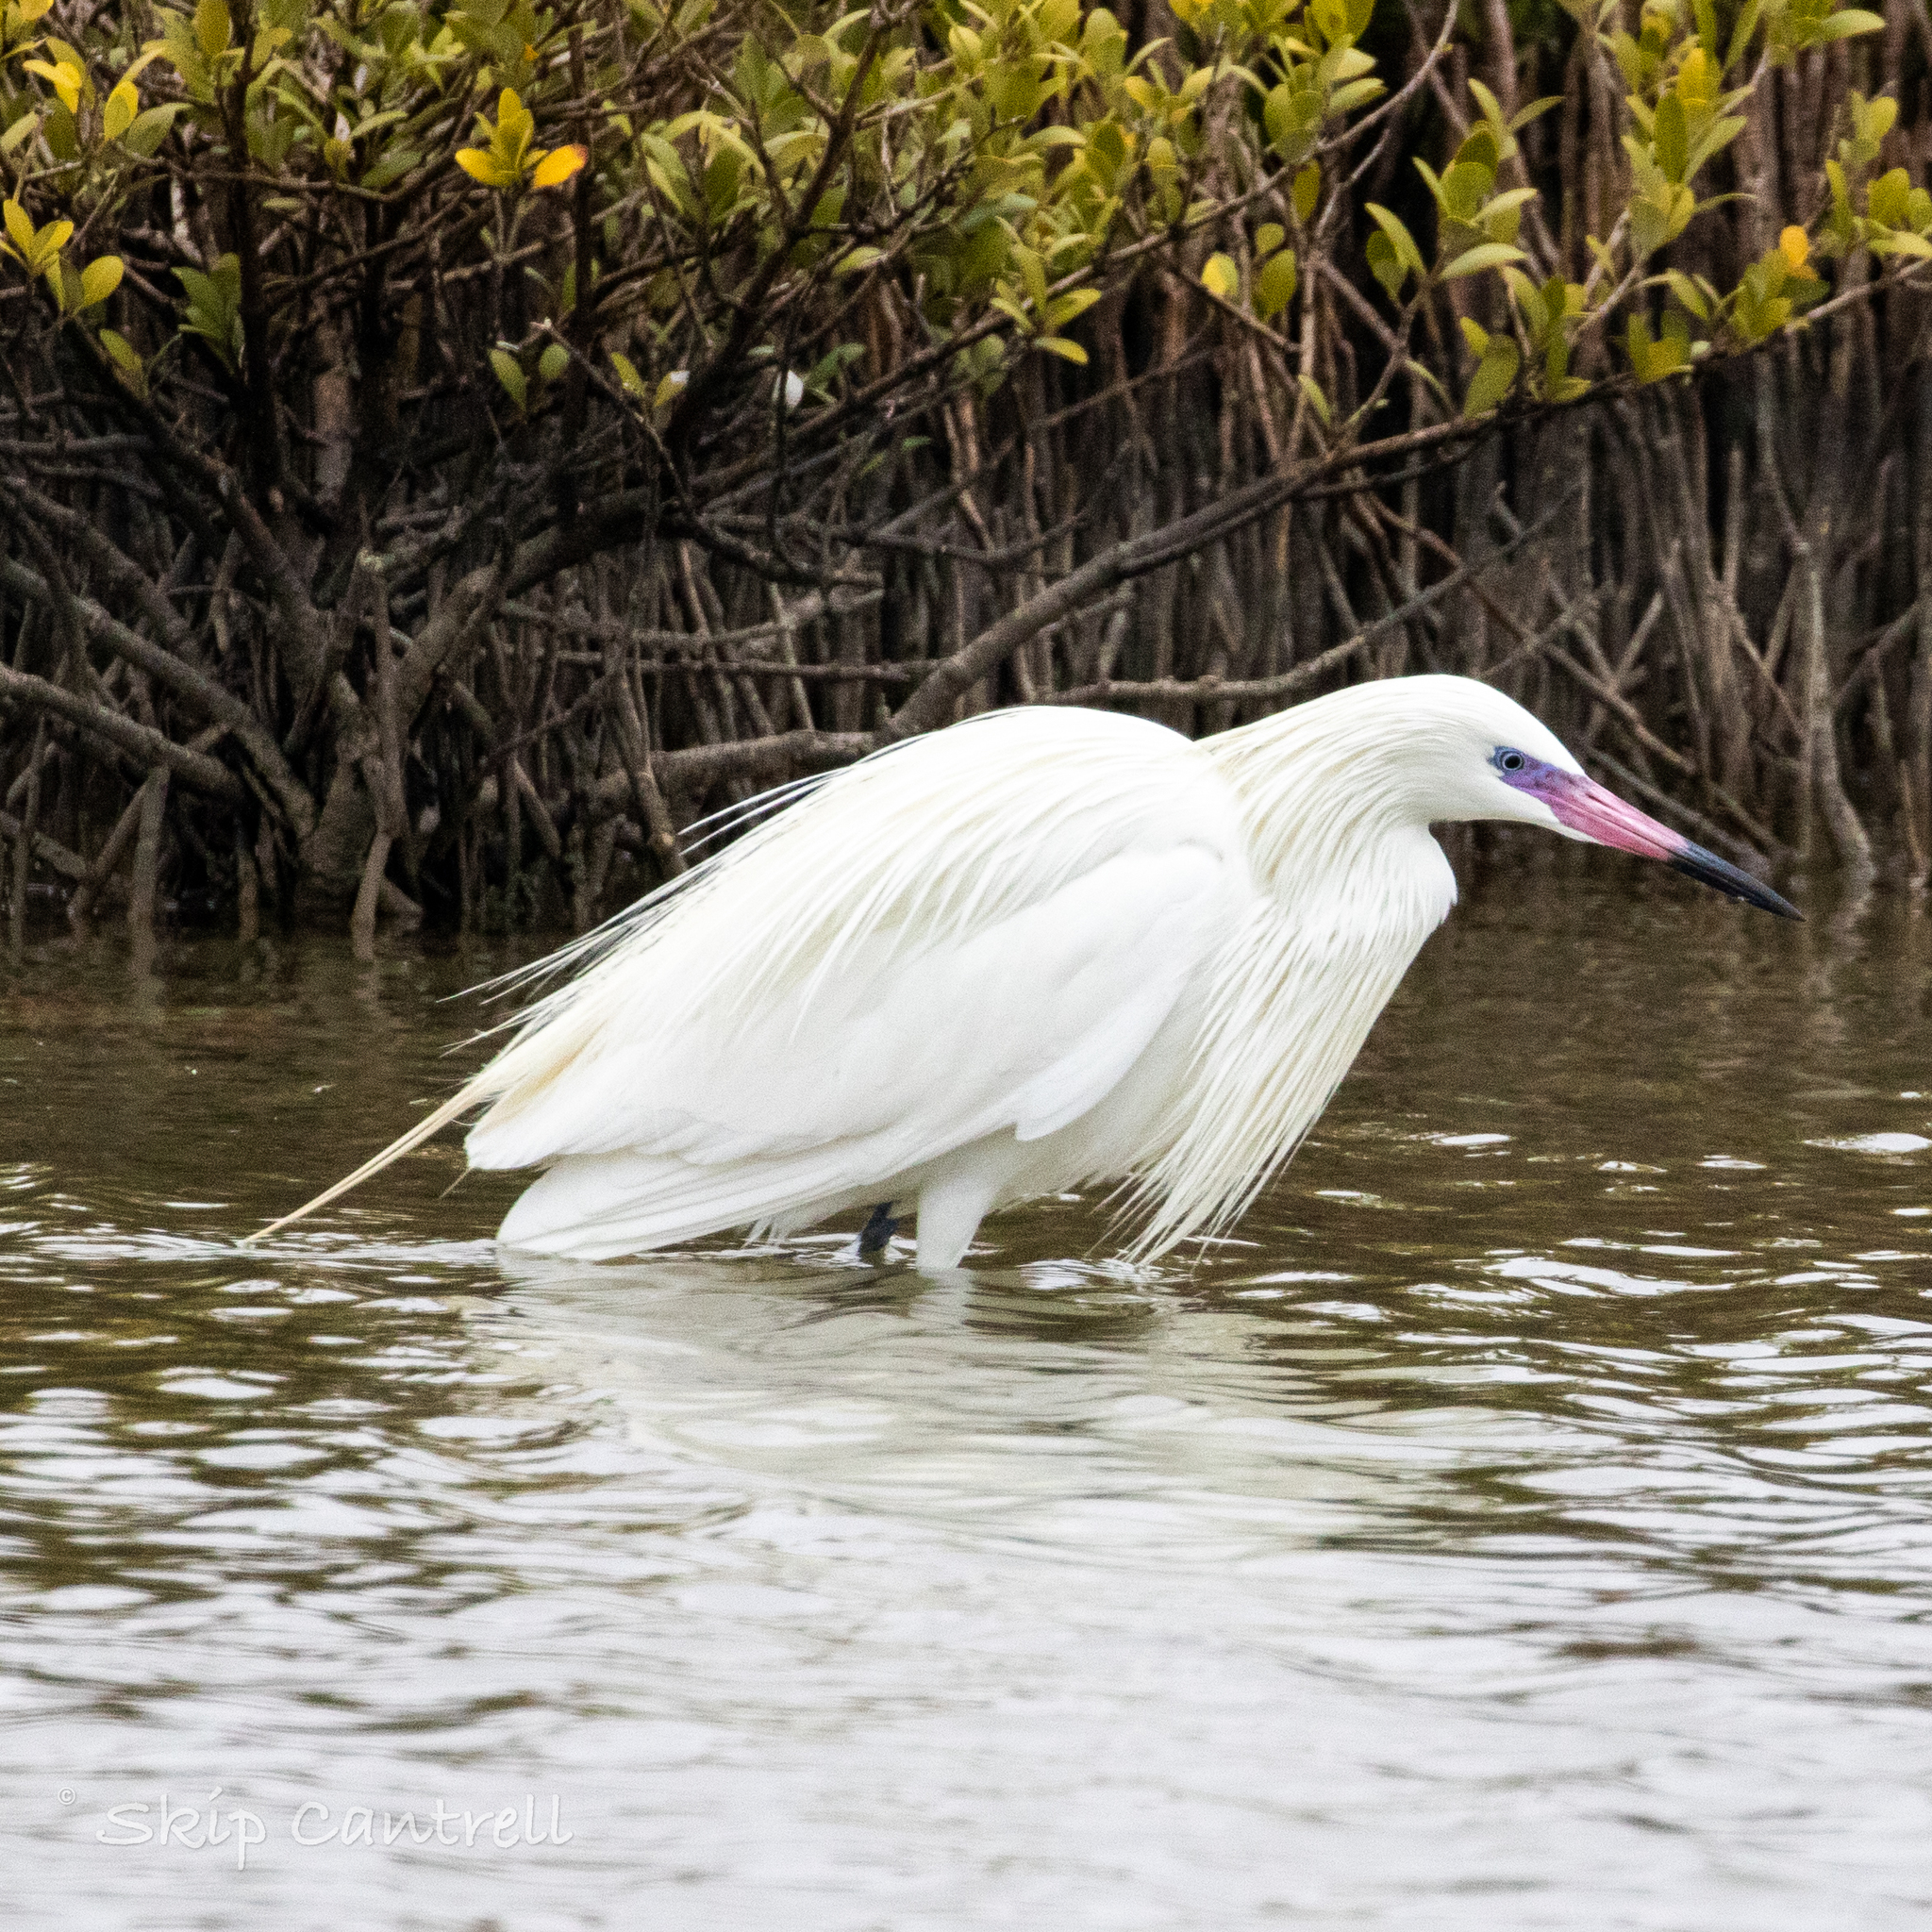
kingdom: Animalia
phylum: Chordata
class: Aves
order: Pelecaniformes
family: Ardeidae
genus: Egretta
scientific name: Egretta rufescens
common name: Reddish egret
